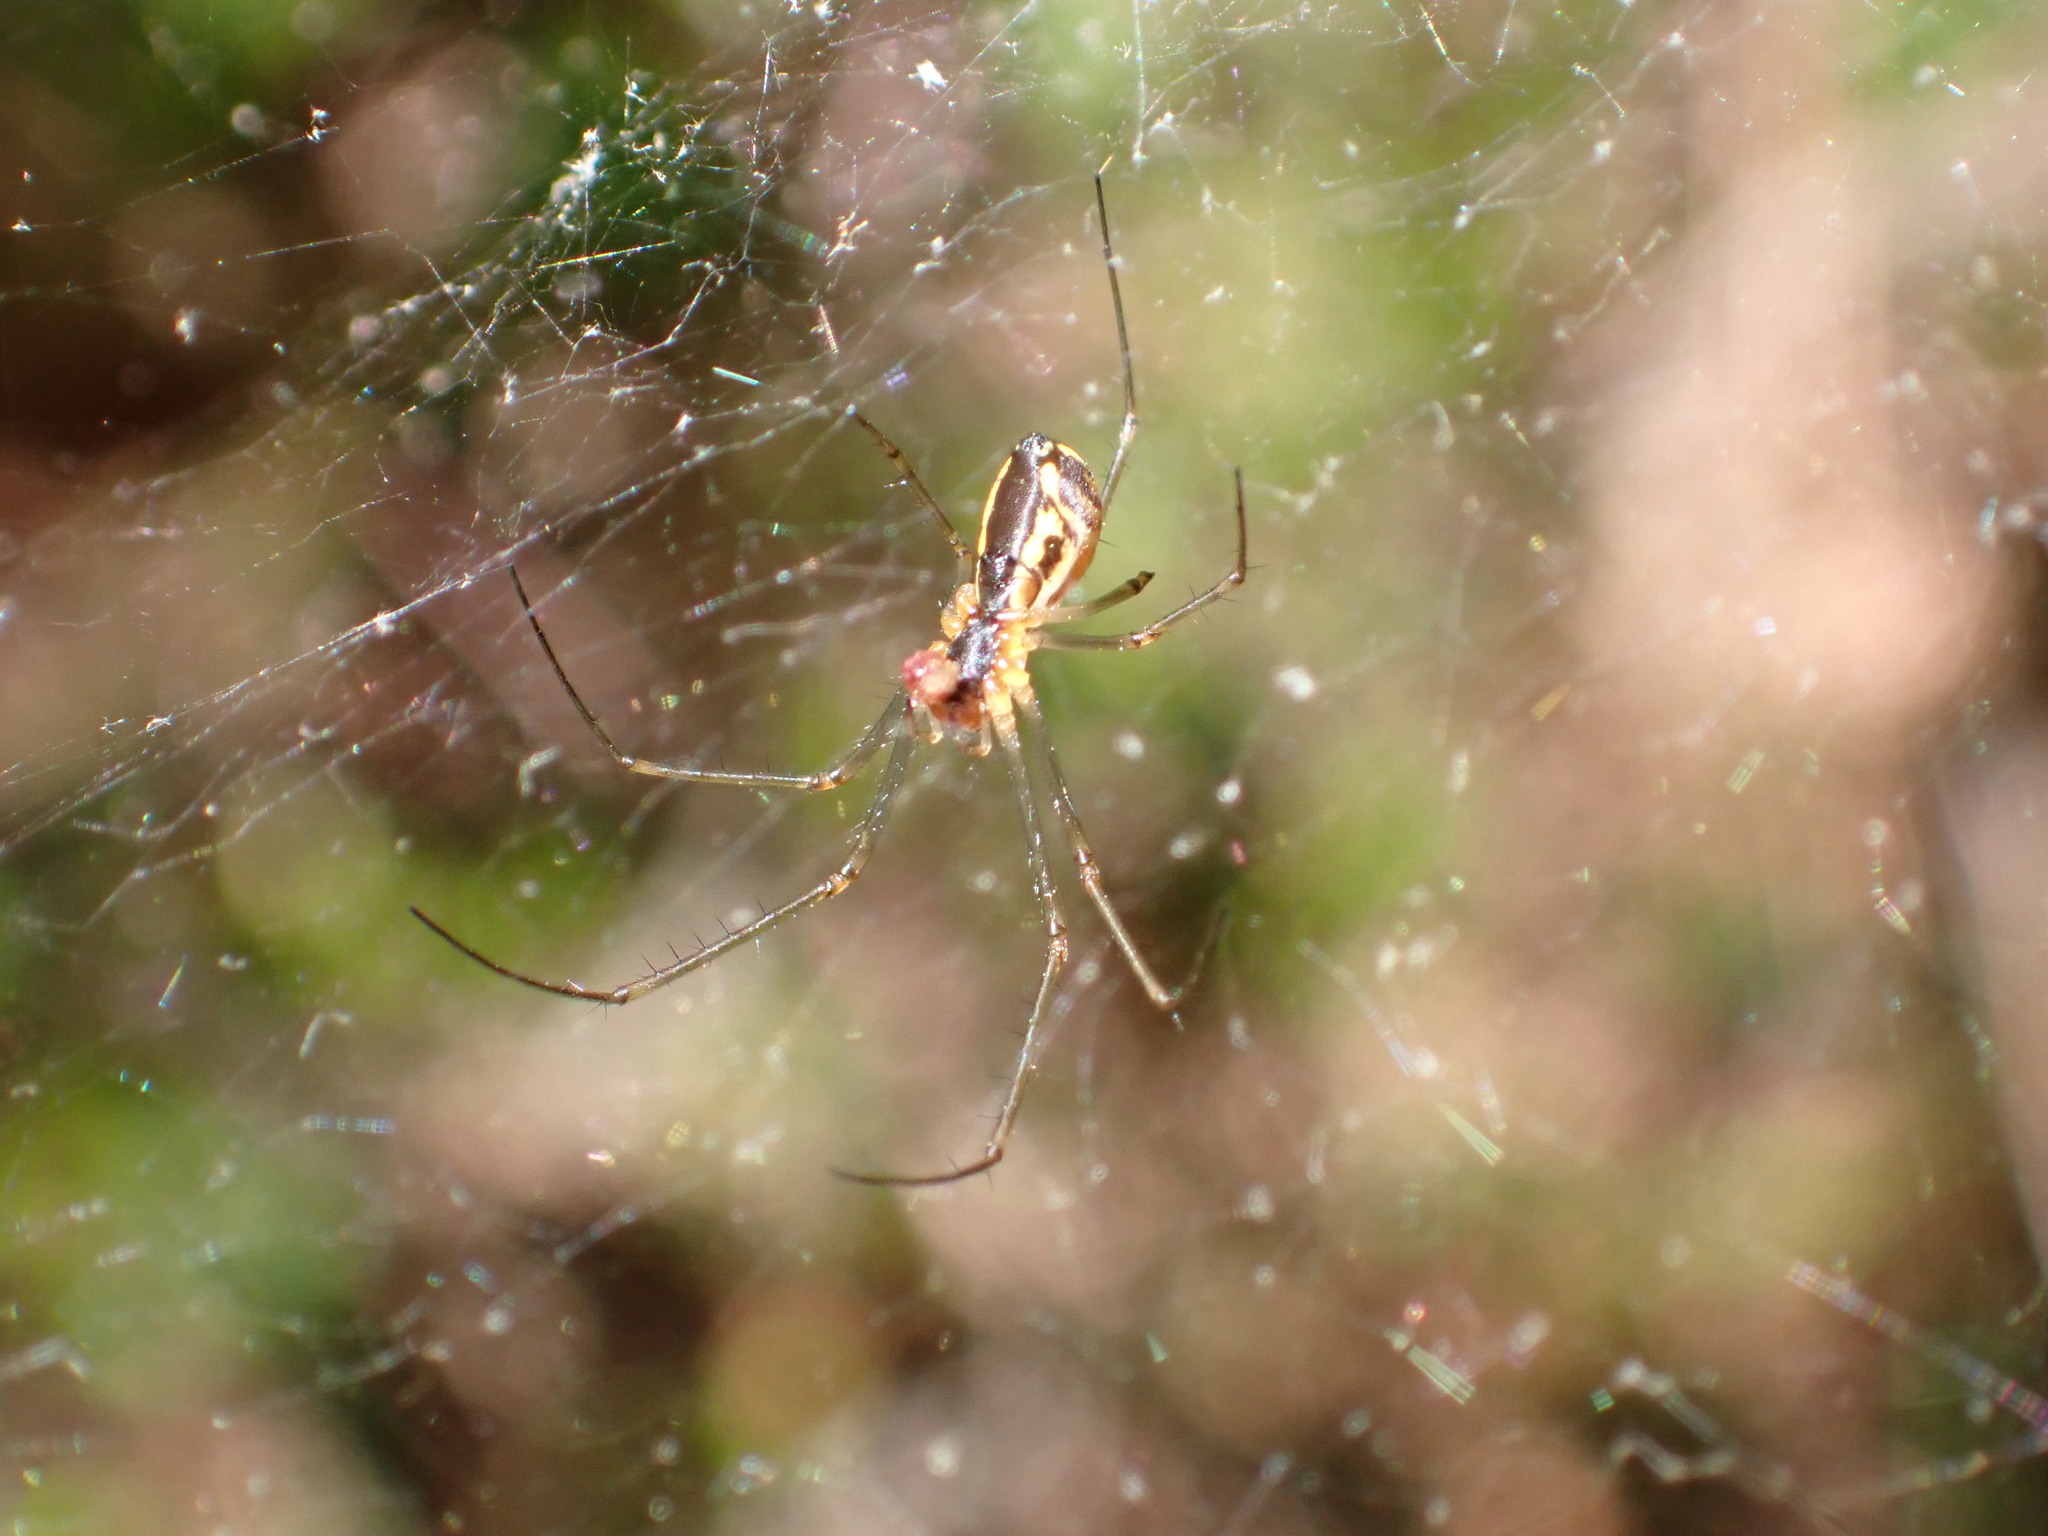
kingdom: Animalia
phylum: Arthropoda
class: Arachnida
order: Araneae
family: Linyphiidae
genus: Neriene
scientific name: Neriene radiata
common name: Filmy dome spider
